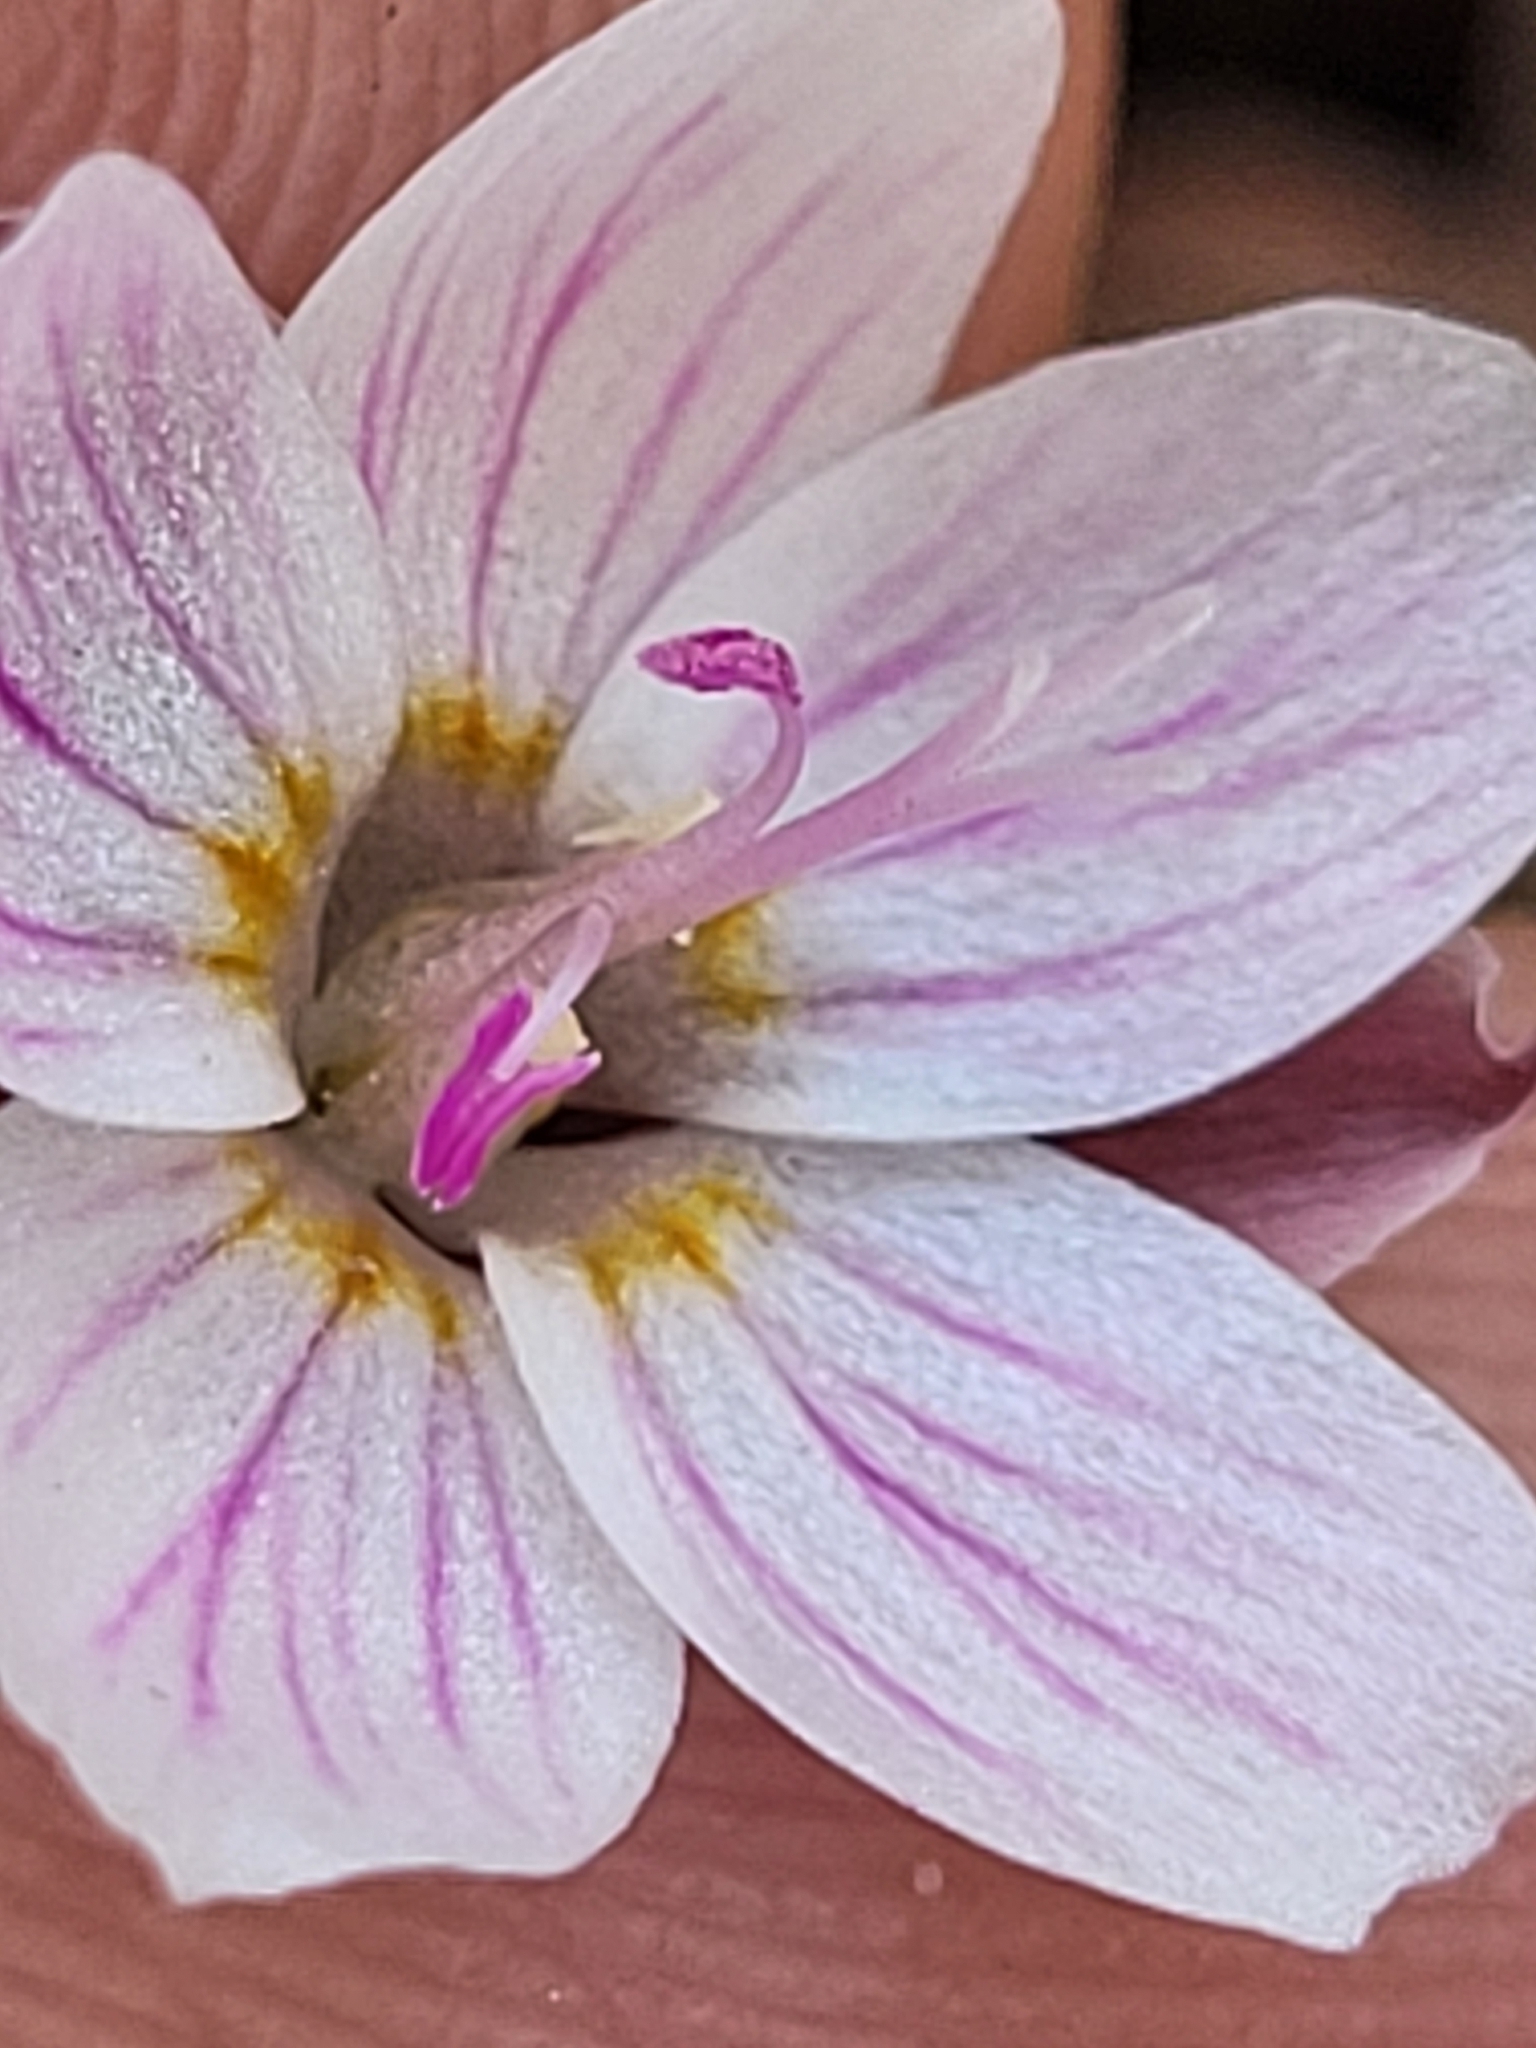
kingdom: Plantae
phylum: Tracheophyta
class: Magnoliopsida
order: Caryophyllales
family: Montiaceae
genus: Claytonia
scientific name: Claytonia virginica
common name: Virginia springbeauty
